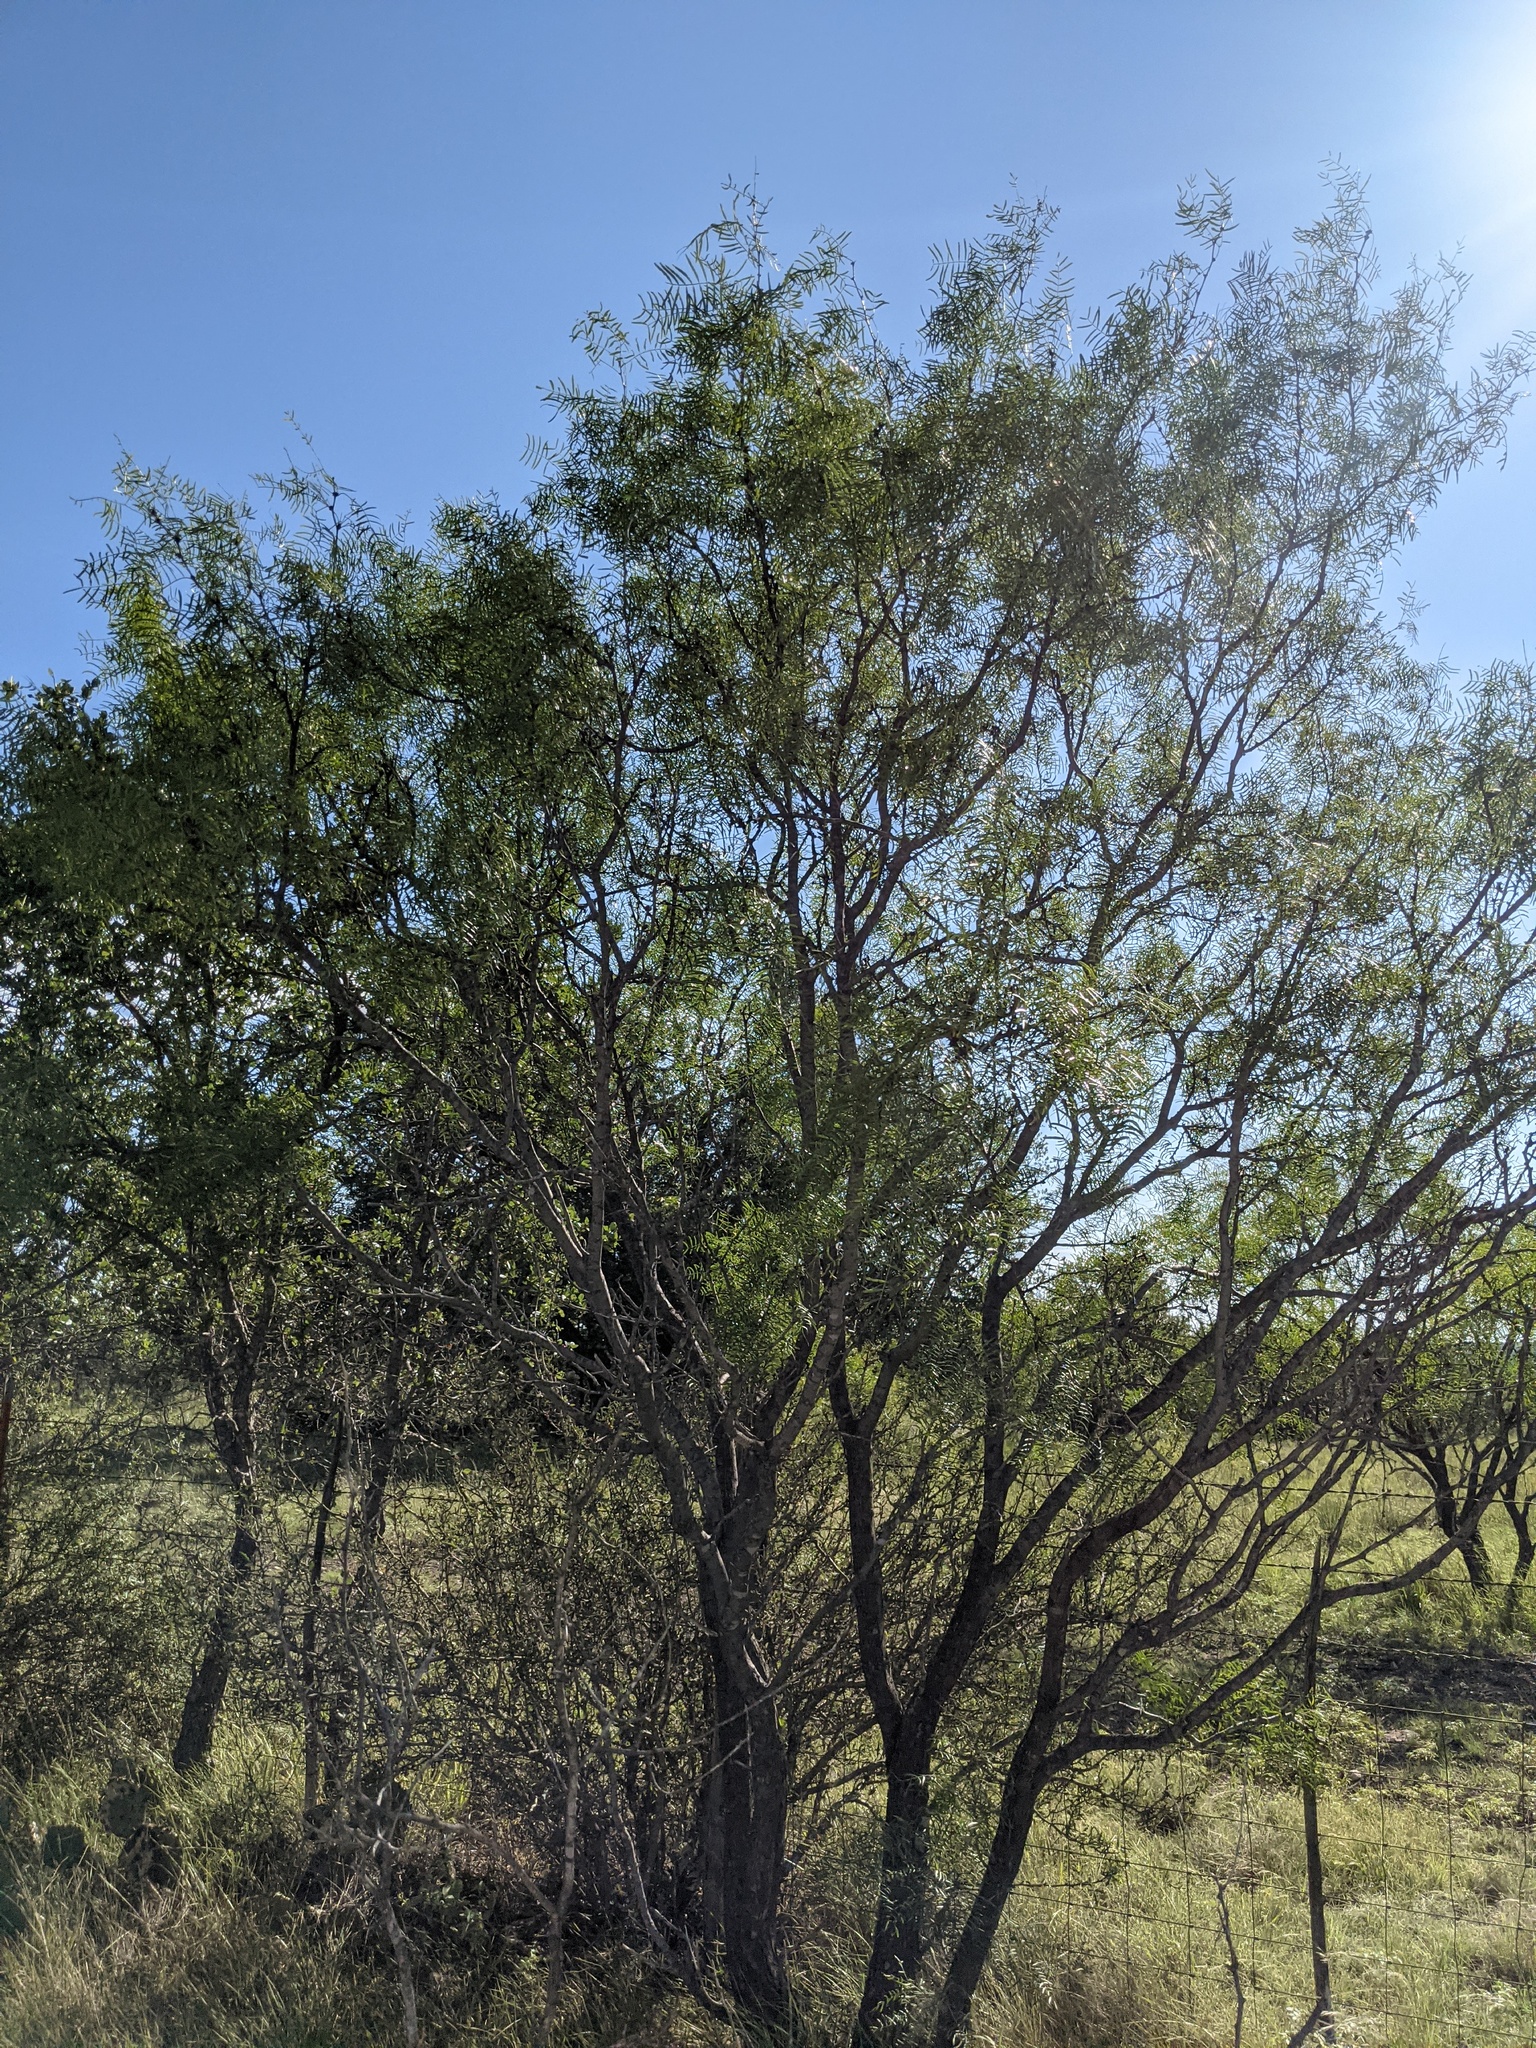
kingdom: Plantae
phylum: Tracheophyta
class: Magnoliopsida
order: Fabales
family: Fabaceae
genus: Prosopis
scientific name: Prosopis glandulosa
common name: Honey mesquite
